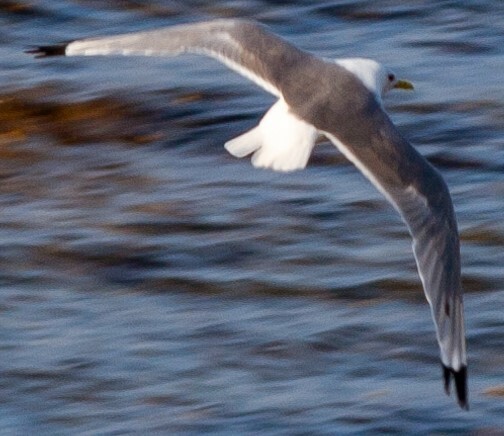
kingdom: Animalia
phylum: Chordata
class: Aves
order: Charadriiformes
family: Laridae
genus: Rissa
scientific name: Rissa tridactyla
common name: Black-legged kittiwake
